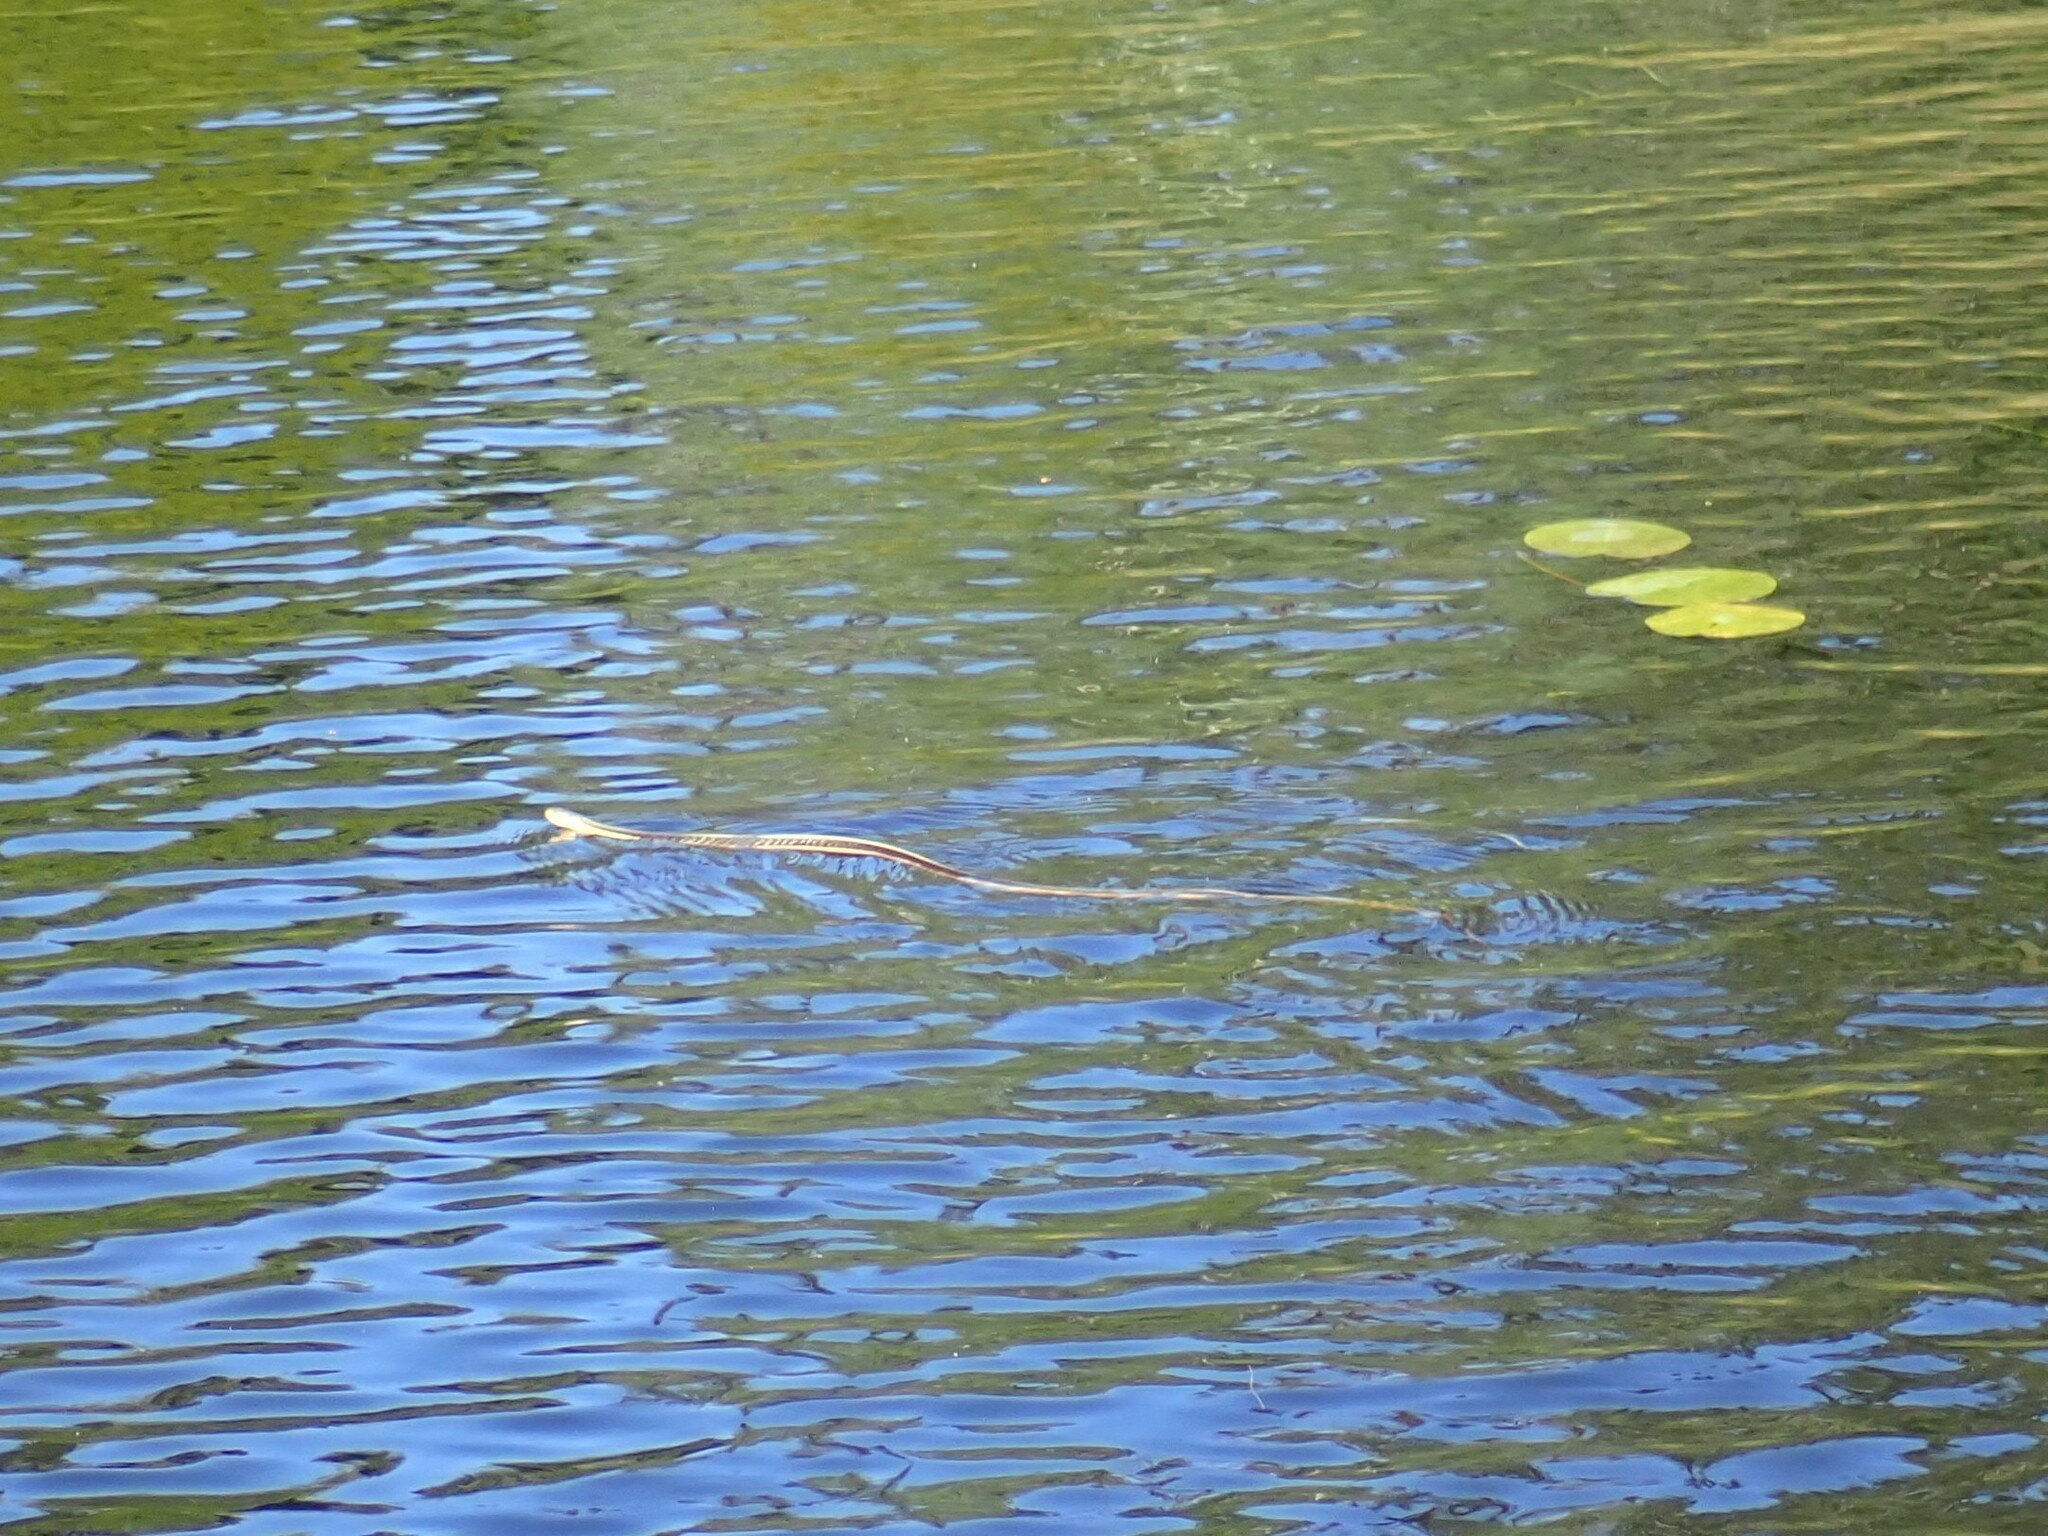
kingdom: Animalia
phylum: Chordata
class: Squamata
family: Colubridae
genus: Thamnophis
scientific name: Thamnophis sirtalis
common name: Common garter snake
